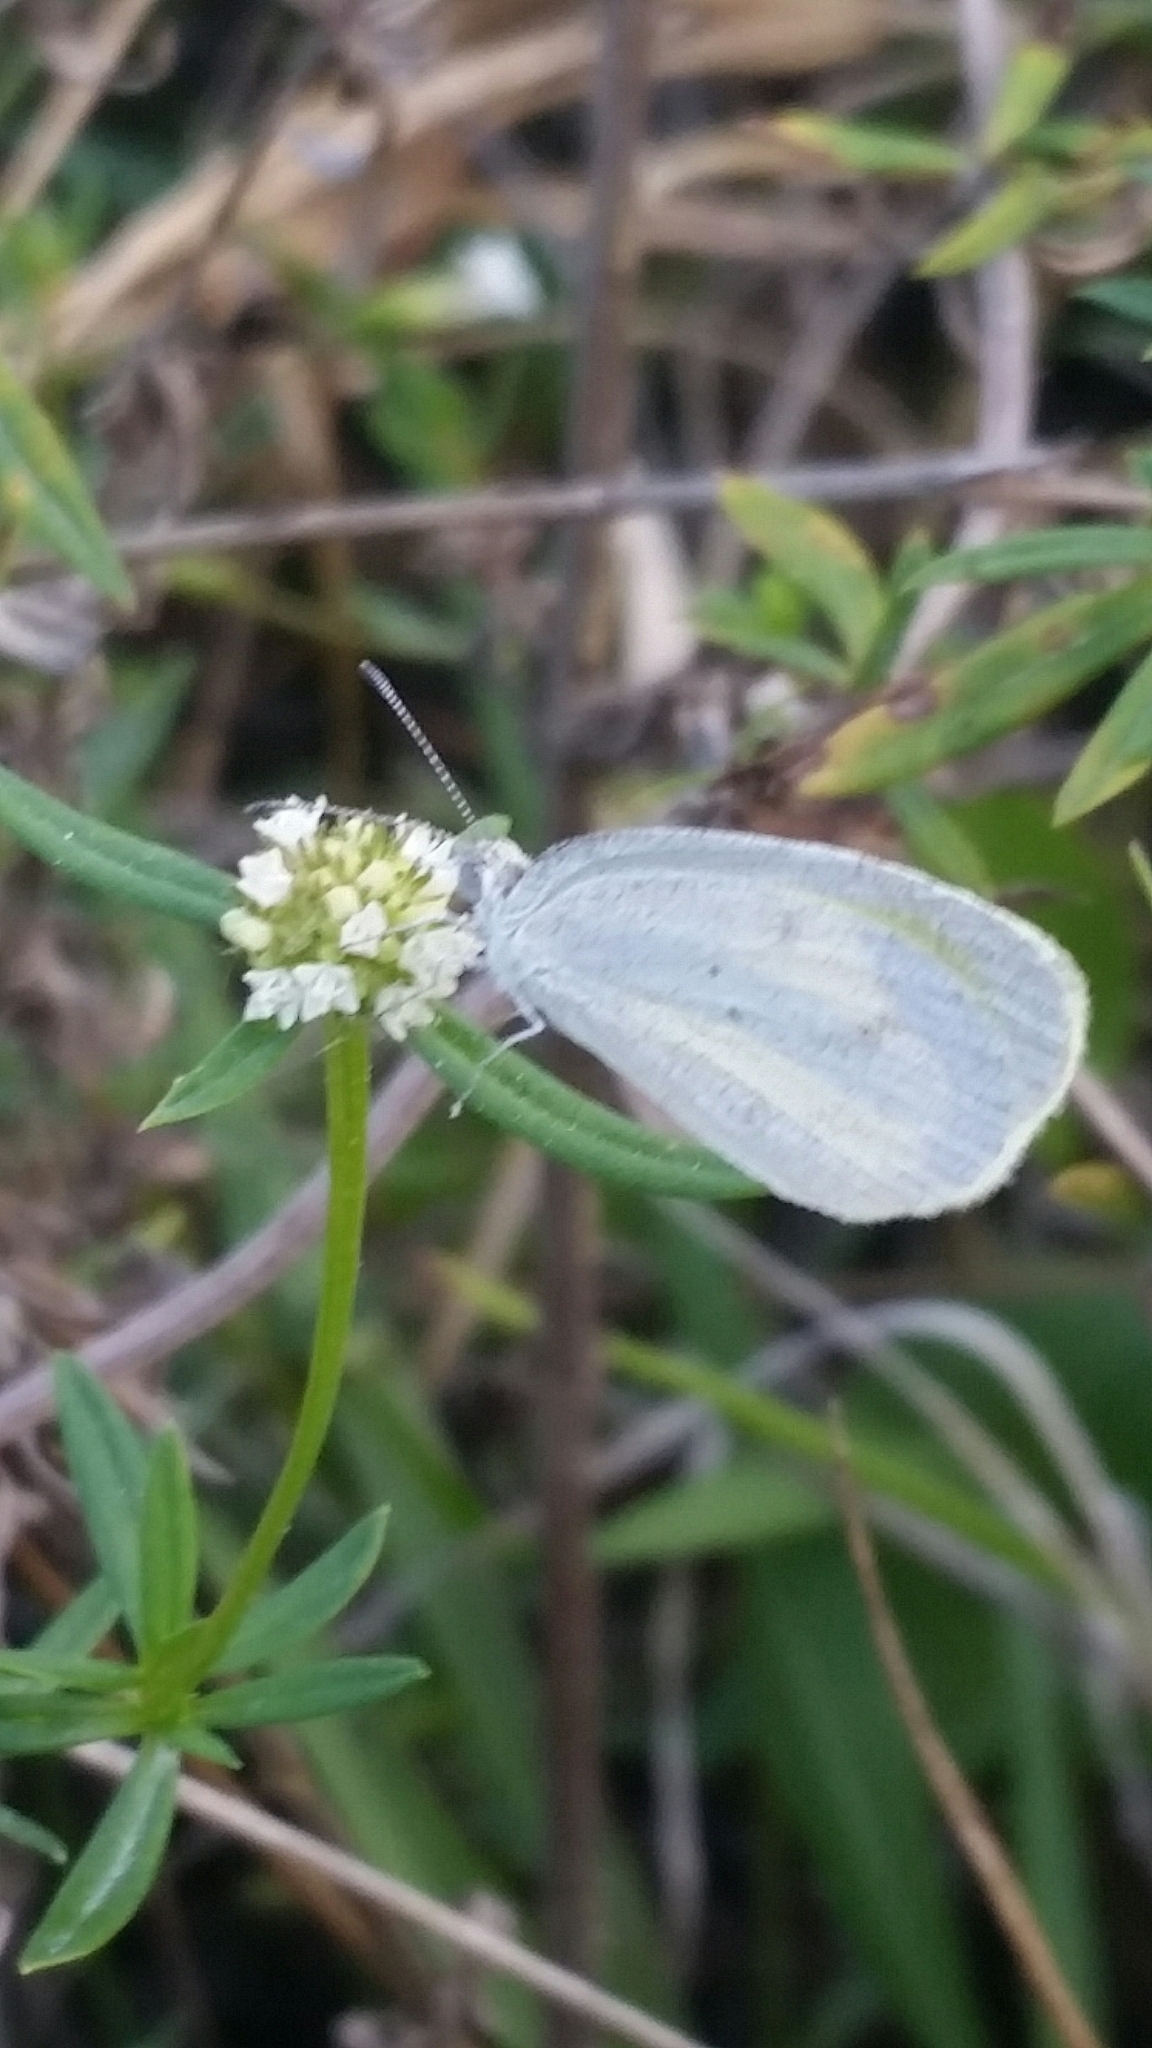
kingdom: Animalia
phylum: Arthropoda
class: Insecta
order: Lepidoptera
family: Pieridae
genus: Eurema
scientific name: Eurema daira
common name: Barred sulphur
